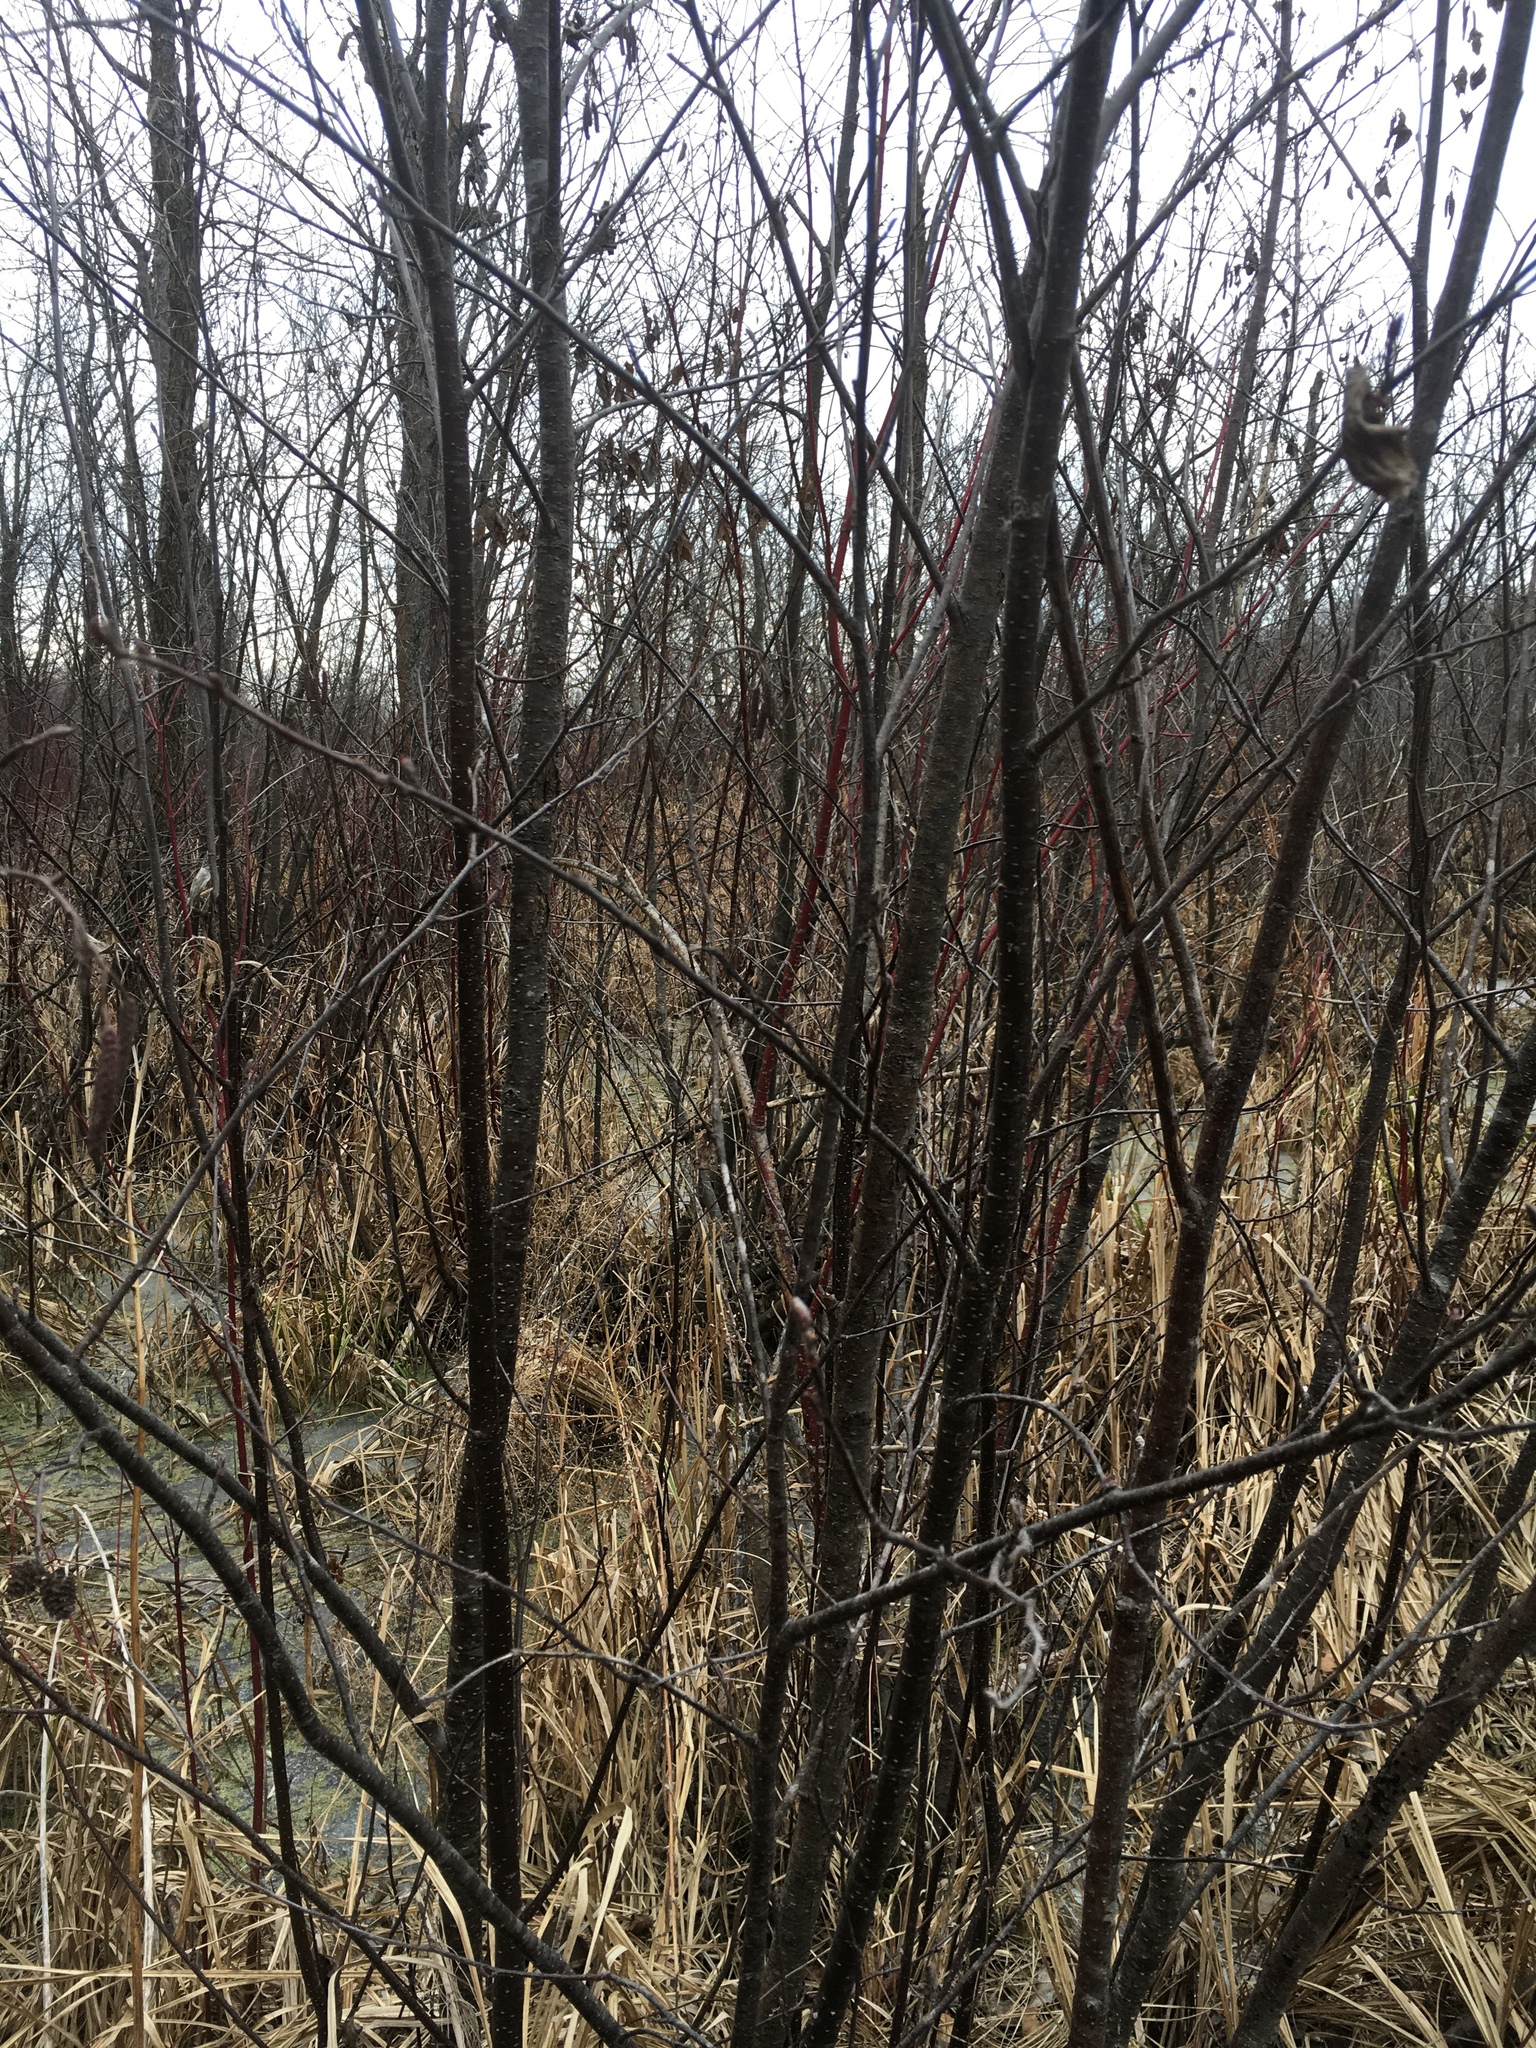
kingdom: Plantae
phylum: Tracheophyta
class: Magnoliopsida
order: Fagales
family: Betulaceae
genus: Alnus
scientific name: Alnus incana
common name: Grey alder
